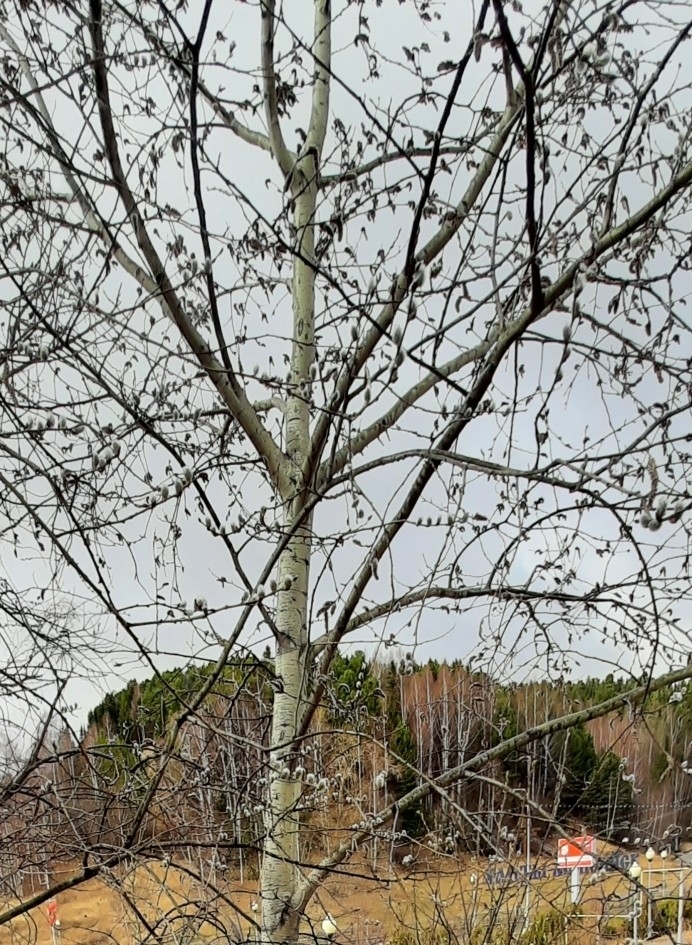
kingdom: Plantae
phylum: Tracheophyta
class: Magnoliopsida
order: Malpighiales
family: Salicaceae
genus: Populus
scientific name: Populus tremula
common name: European aspen
